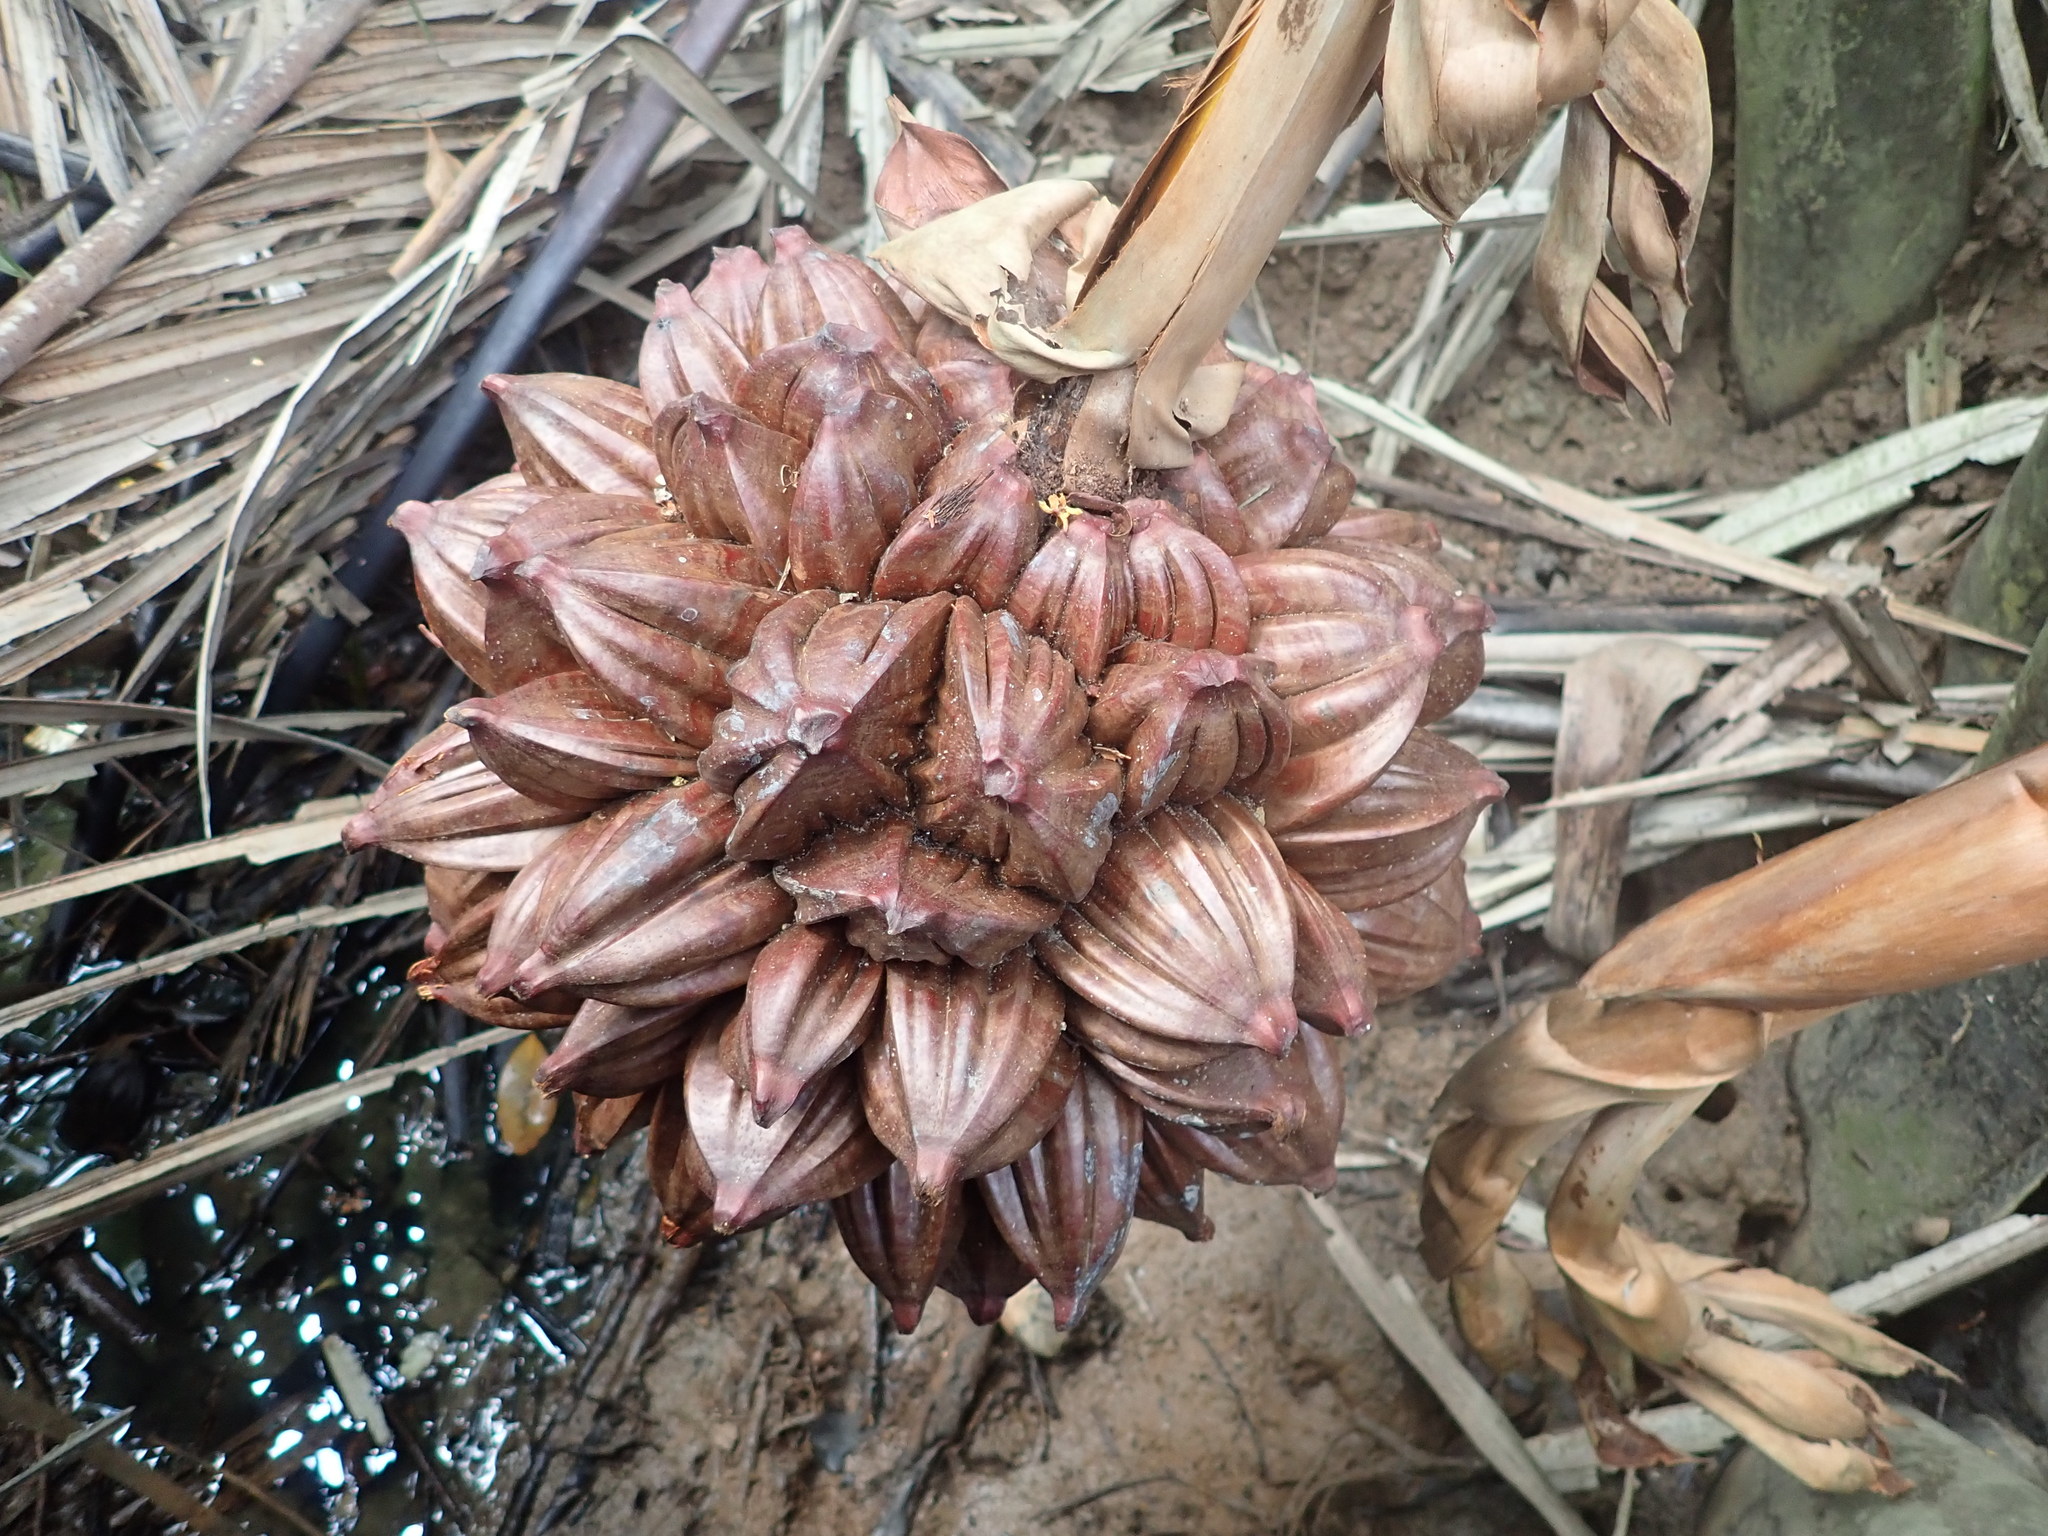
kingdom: Plantae
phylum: Tracheophyta
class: Liliopsida
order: Arecales
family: Arecaceae
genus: Nypa
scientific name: Nypa fruticans
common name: Mangrove palm
